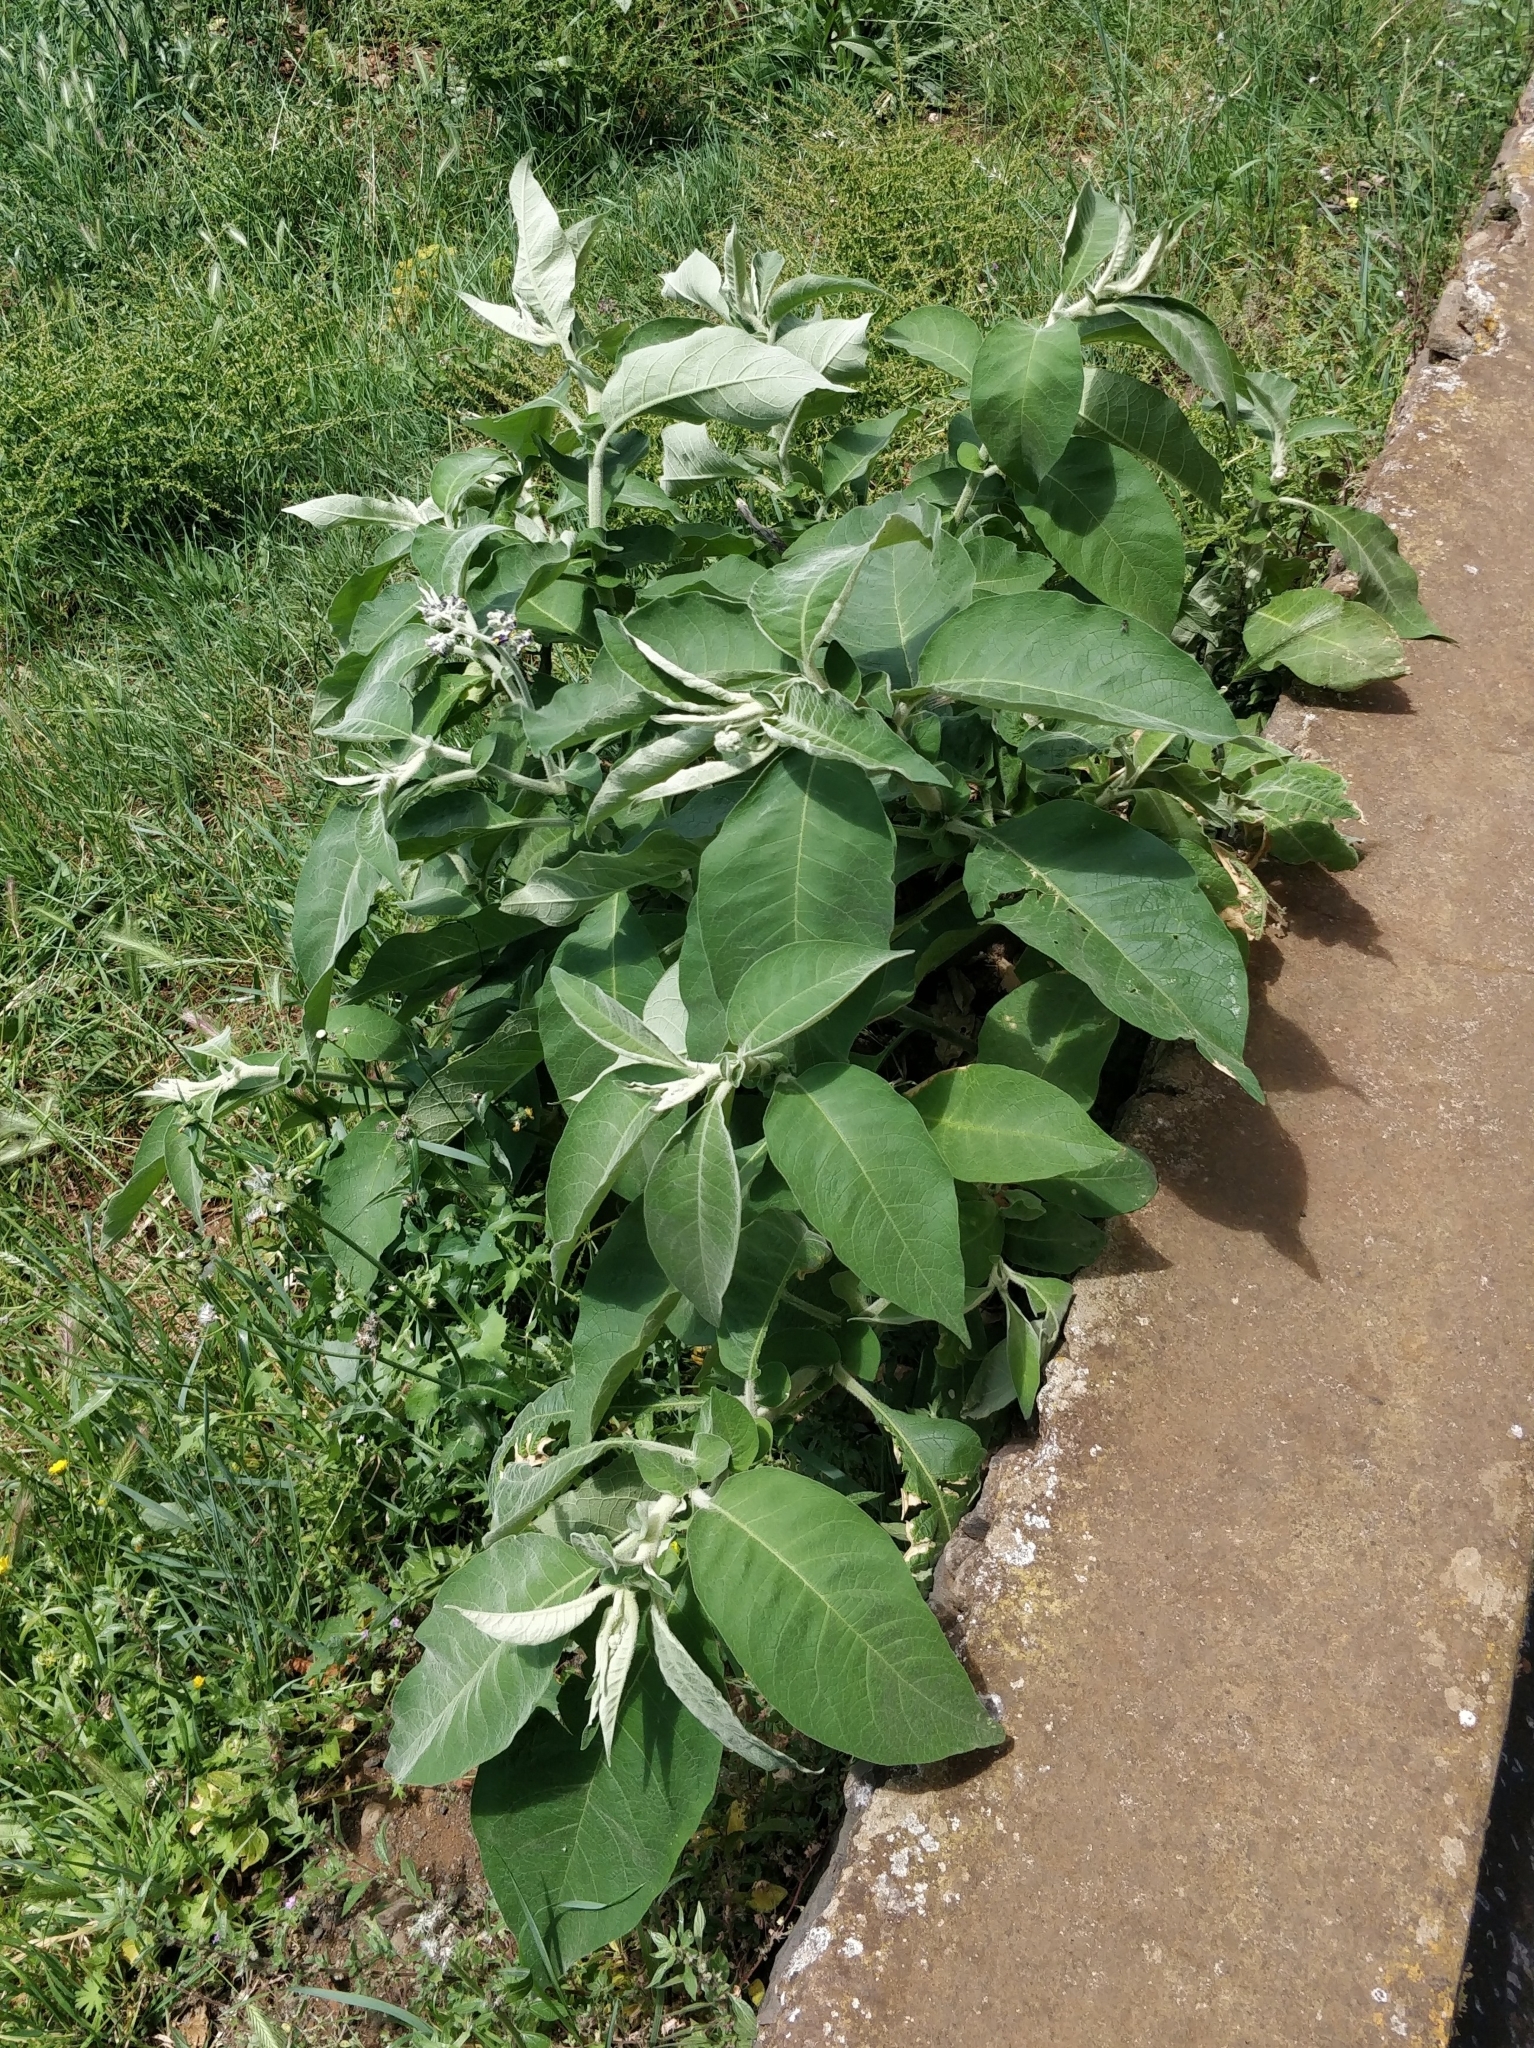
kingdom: Plantae
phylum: Tracheophyta
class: Magnoliopsida
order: Solanales
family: Solanaceae
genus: Solanum
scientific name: Solanum mauritianum
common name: Earleaf nightshade
